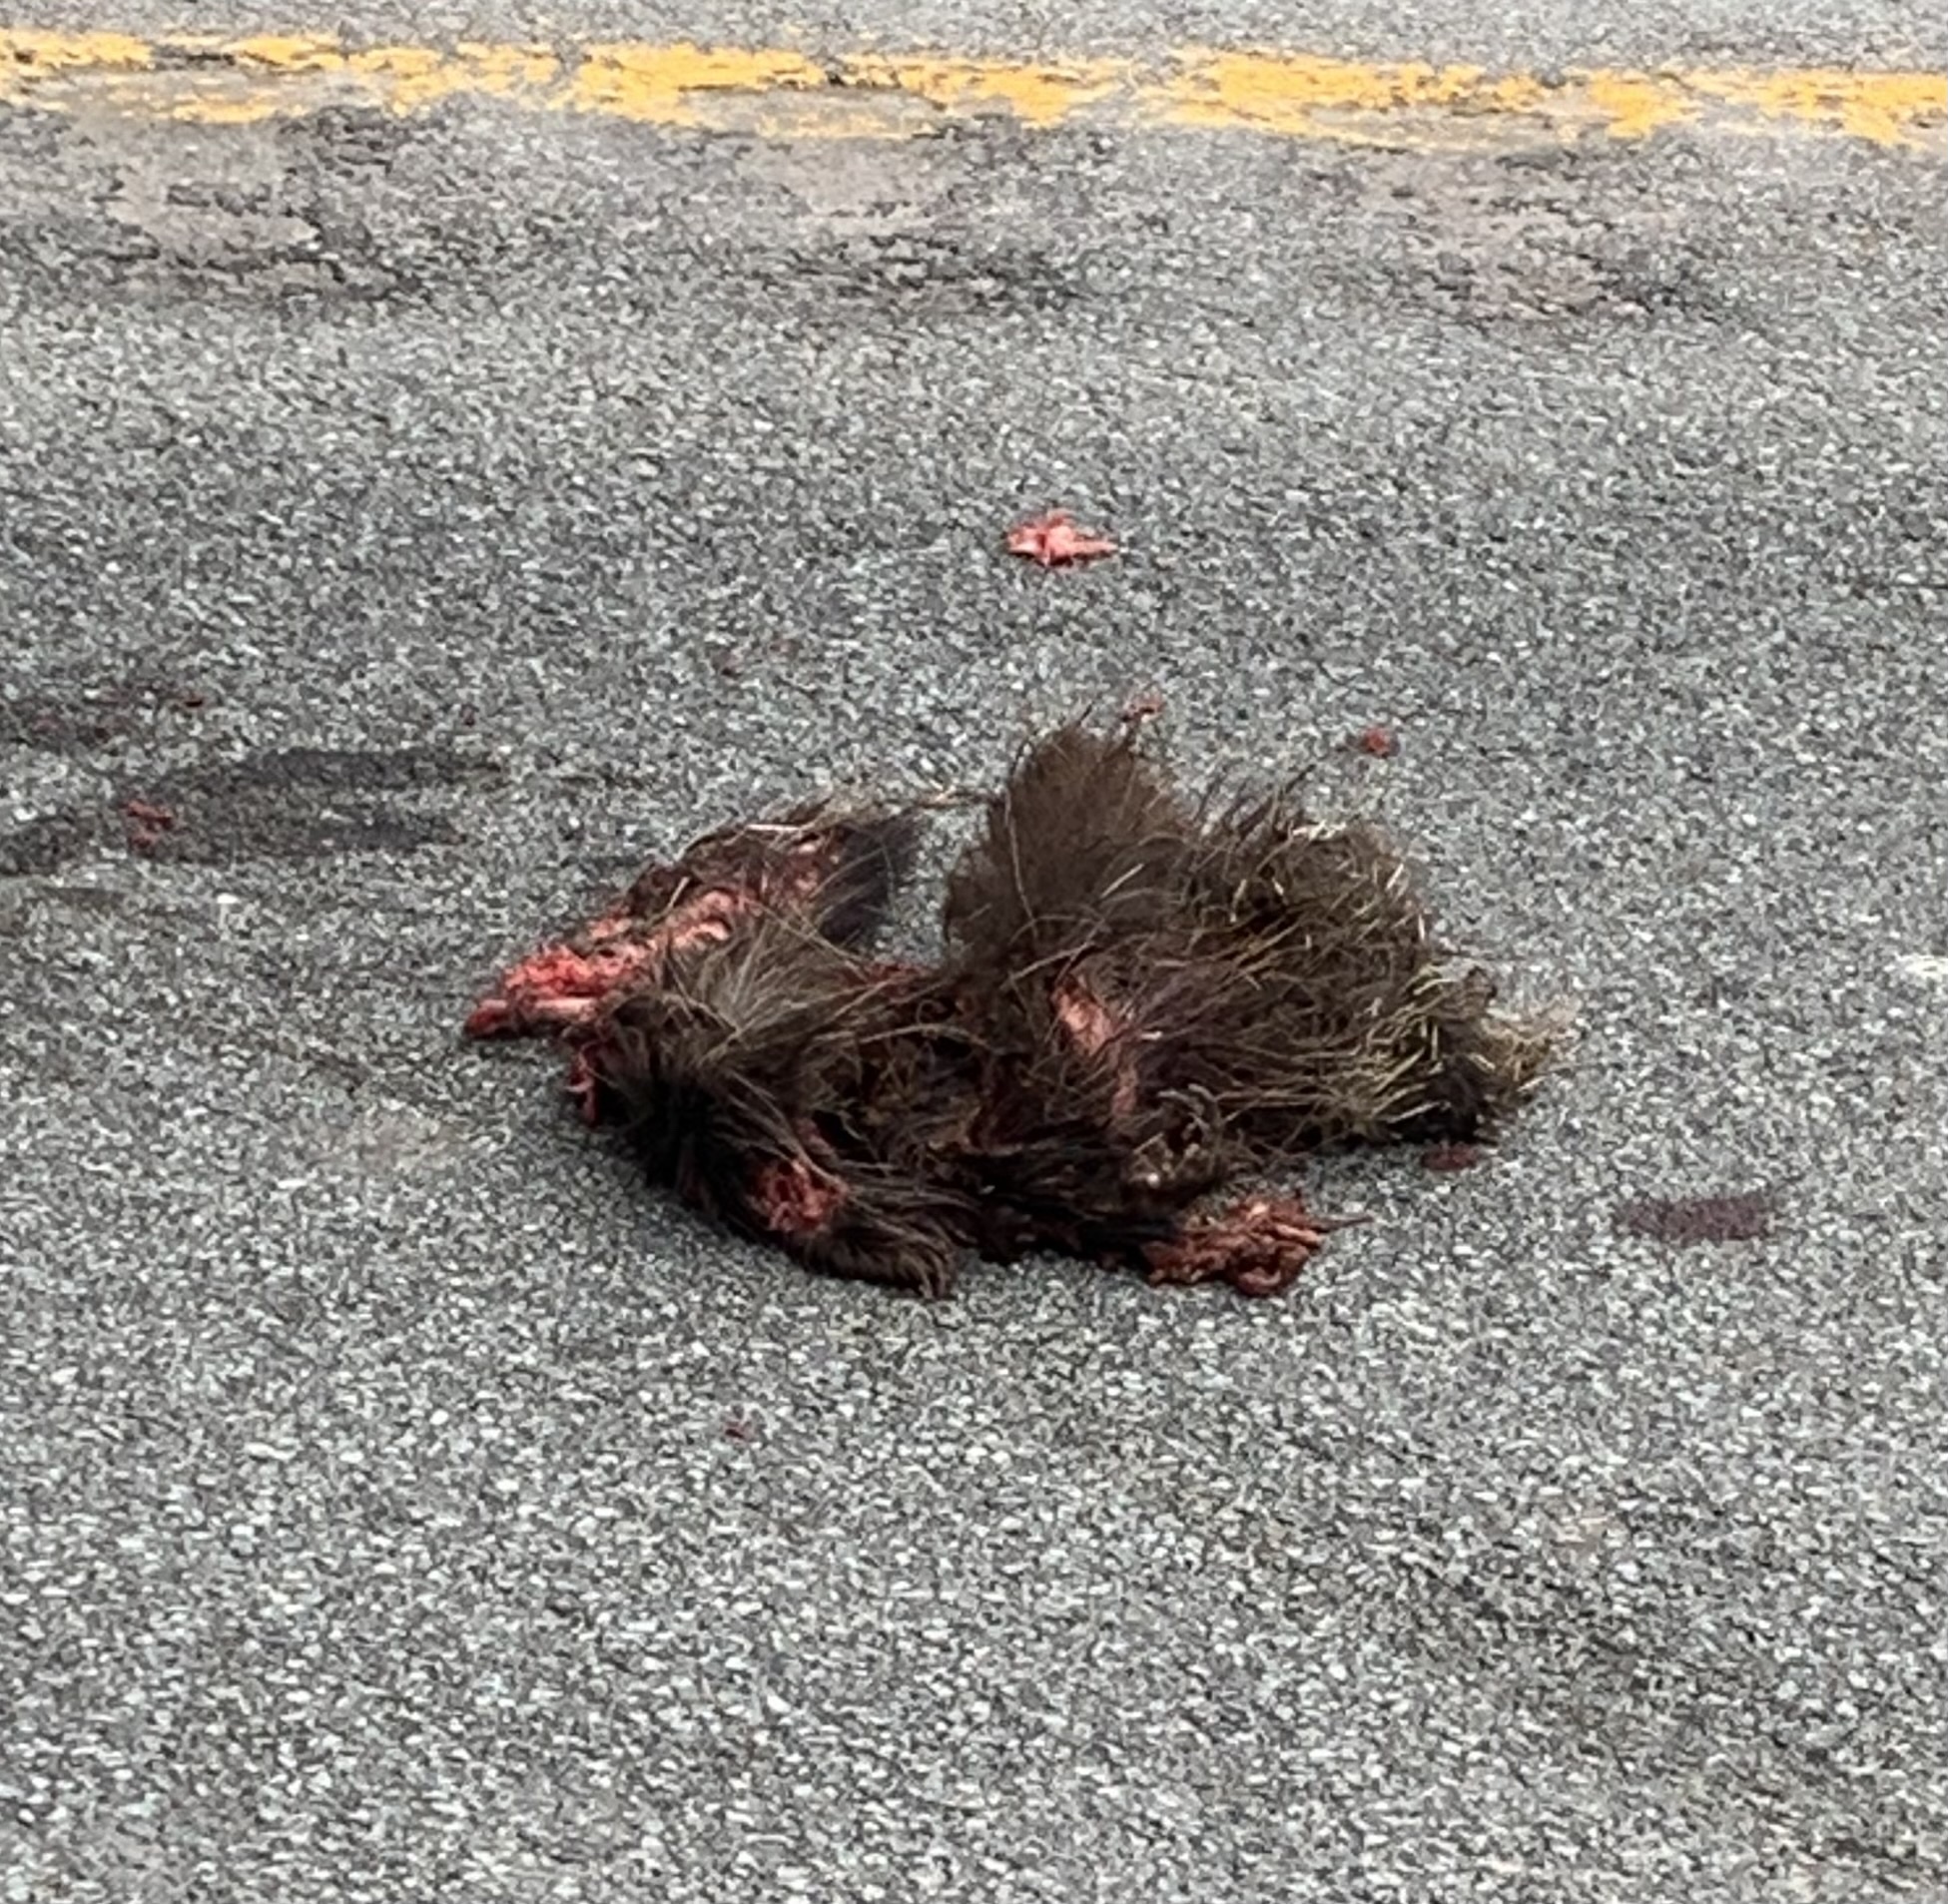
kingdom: Animalia
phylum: Chordata
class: Mammalia
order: Rodentia
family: Erethizontidae
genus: Erethizon
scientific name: Erethizon dorsatus
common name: North american porcupine
